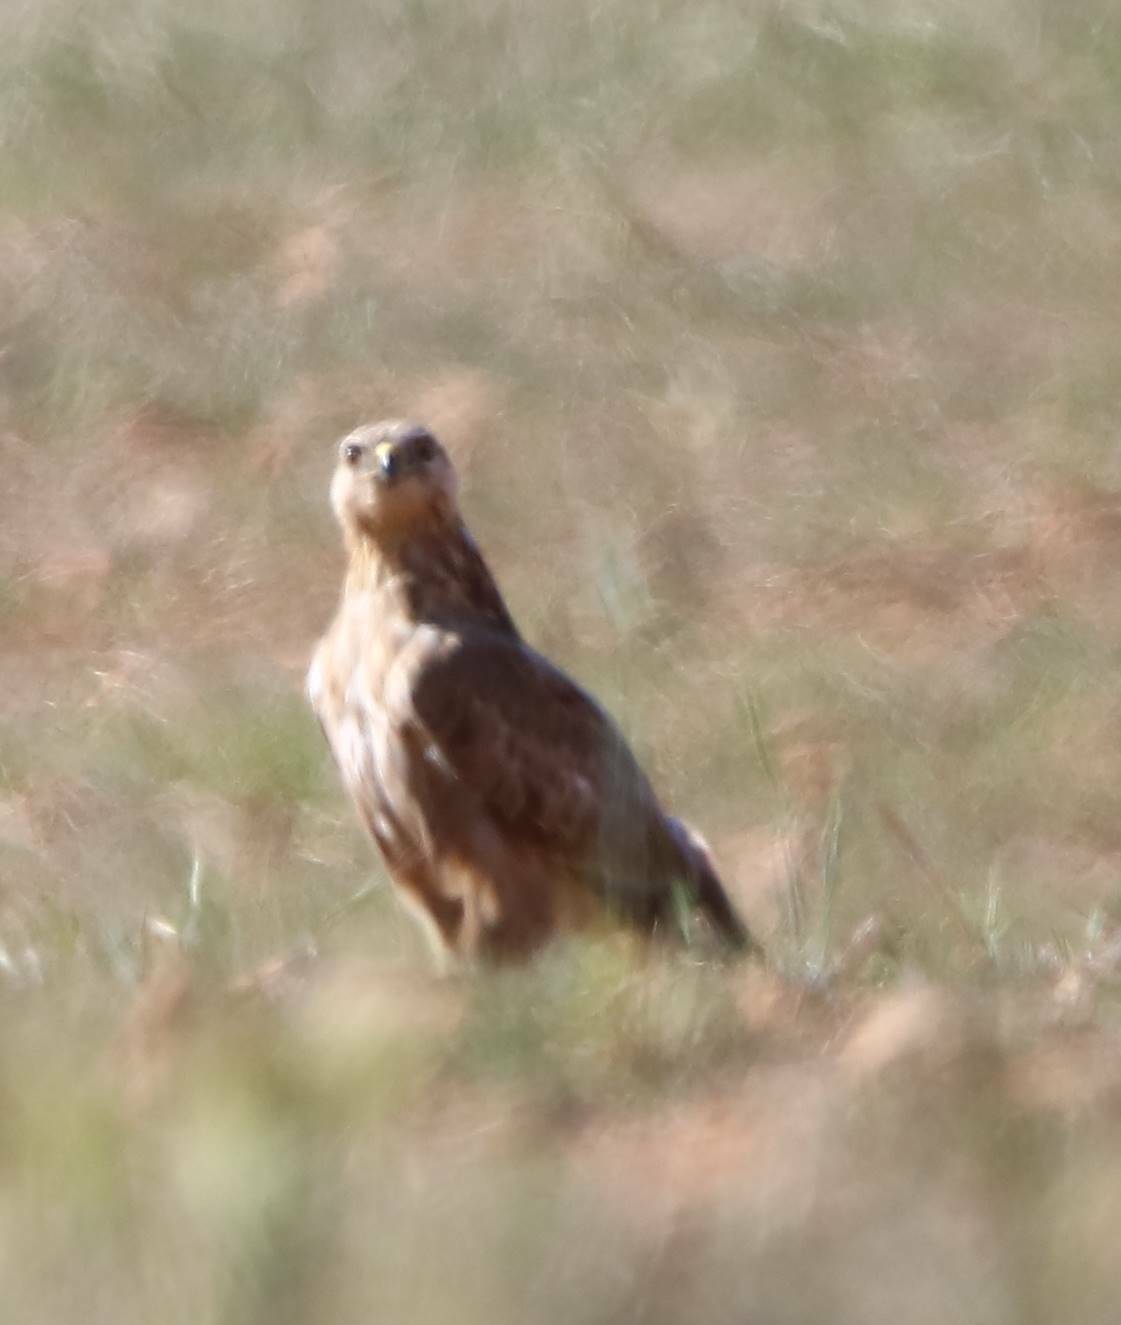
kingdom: Animalia
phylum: Chordata
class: Aves
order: Accipitriformes
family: Accipitridae
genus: Buteo
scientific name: Buteo rufinus
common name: Long-legged buzzard
